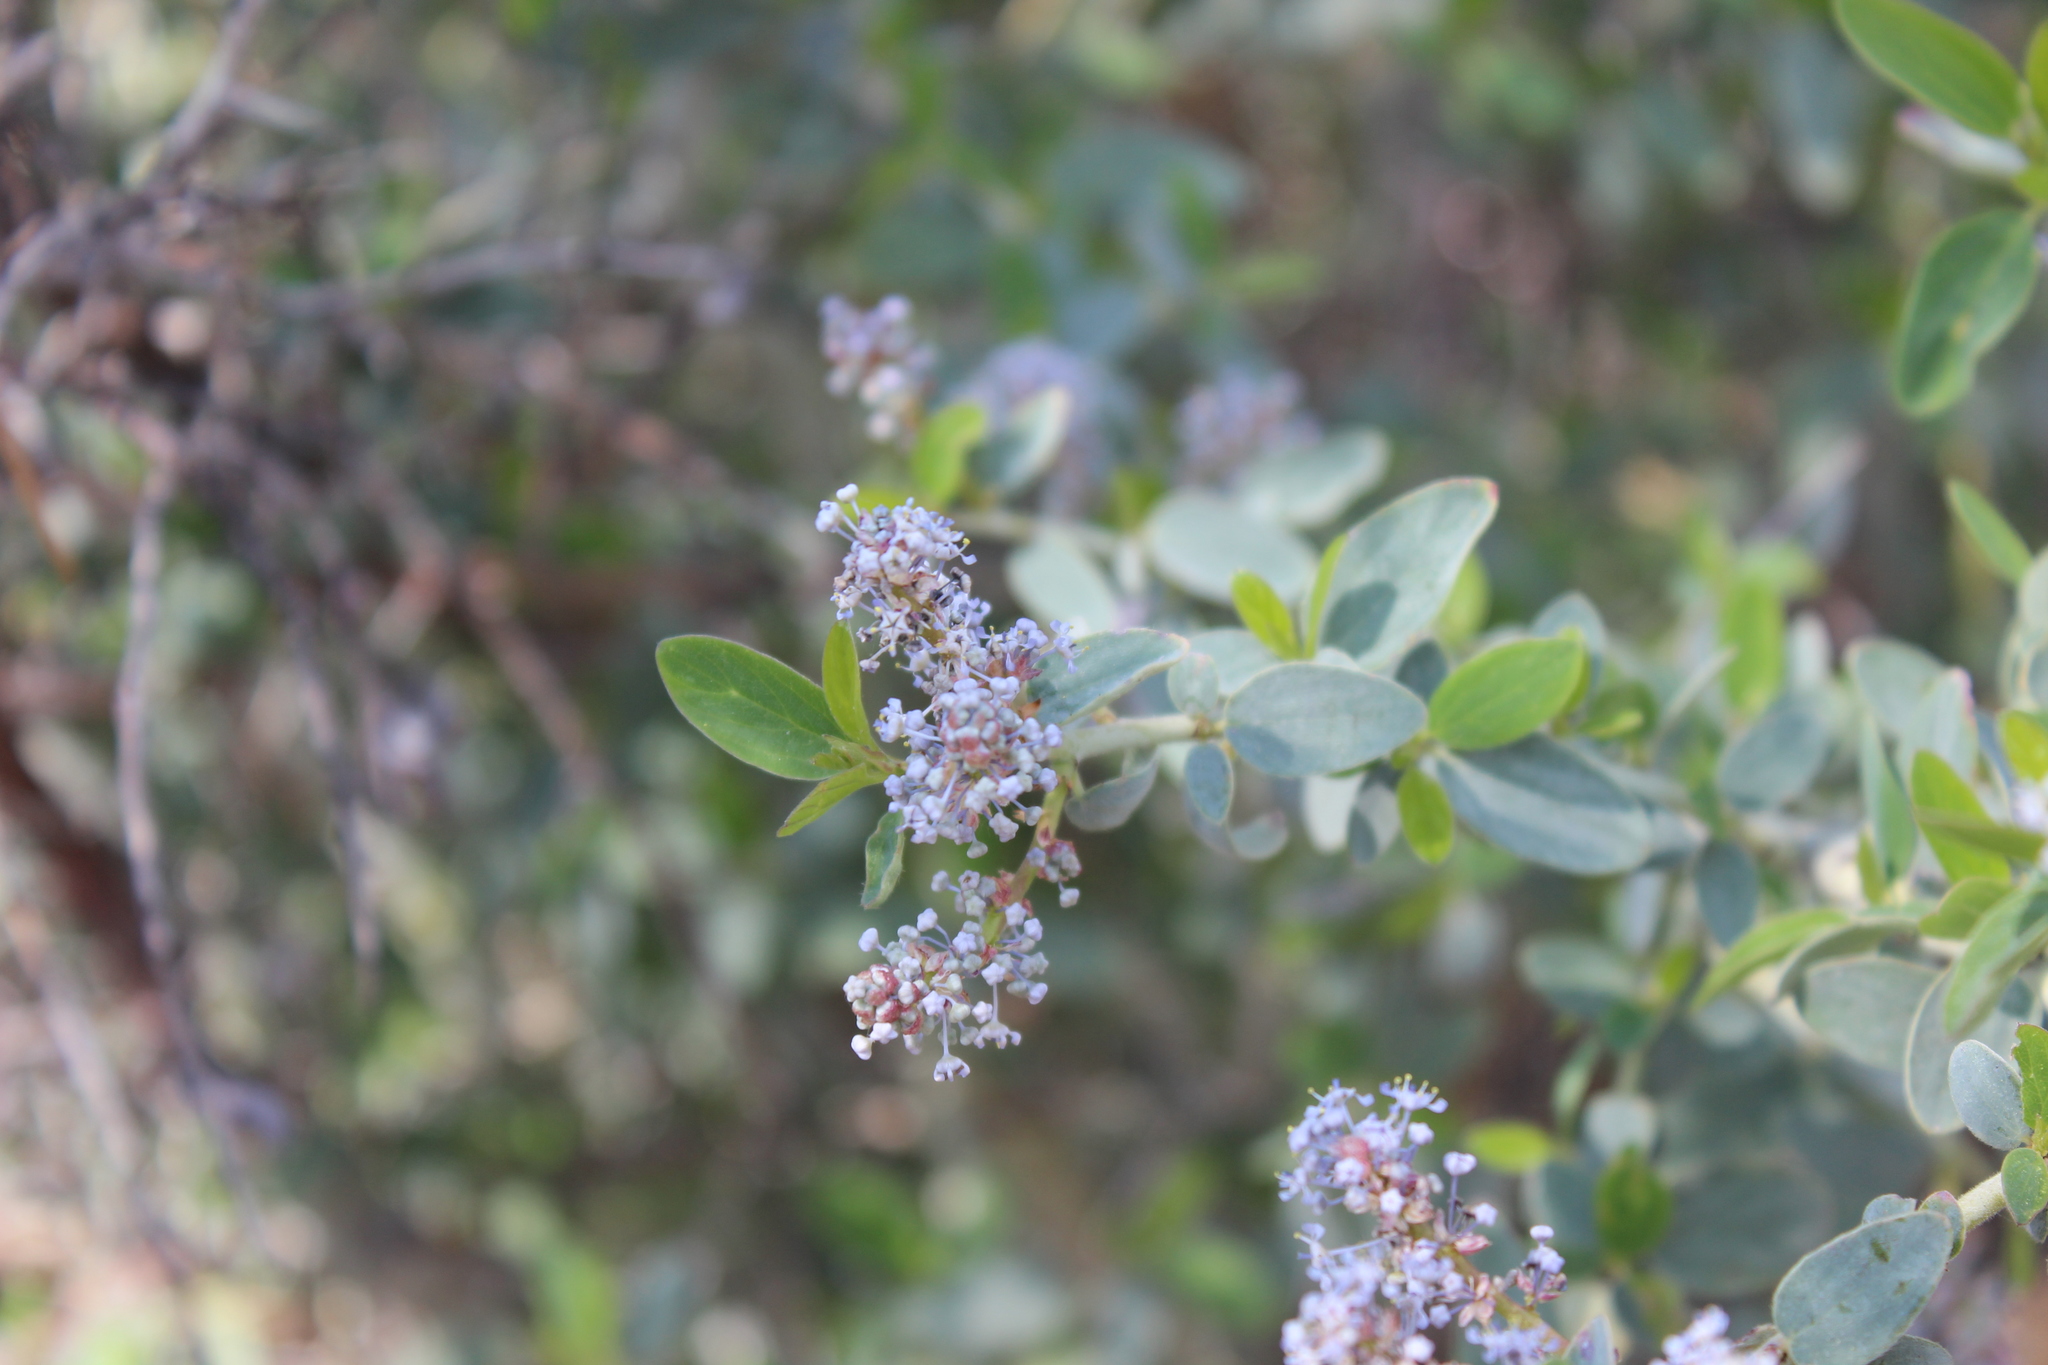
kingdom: Plantae
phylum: Tracheophyta
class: Magnoliopsida
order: Rosales
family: Rhamnaceae
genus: Ceanothus
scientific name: Ceanothus leucodermis
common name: Chaparral whitethorn
